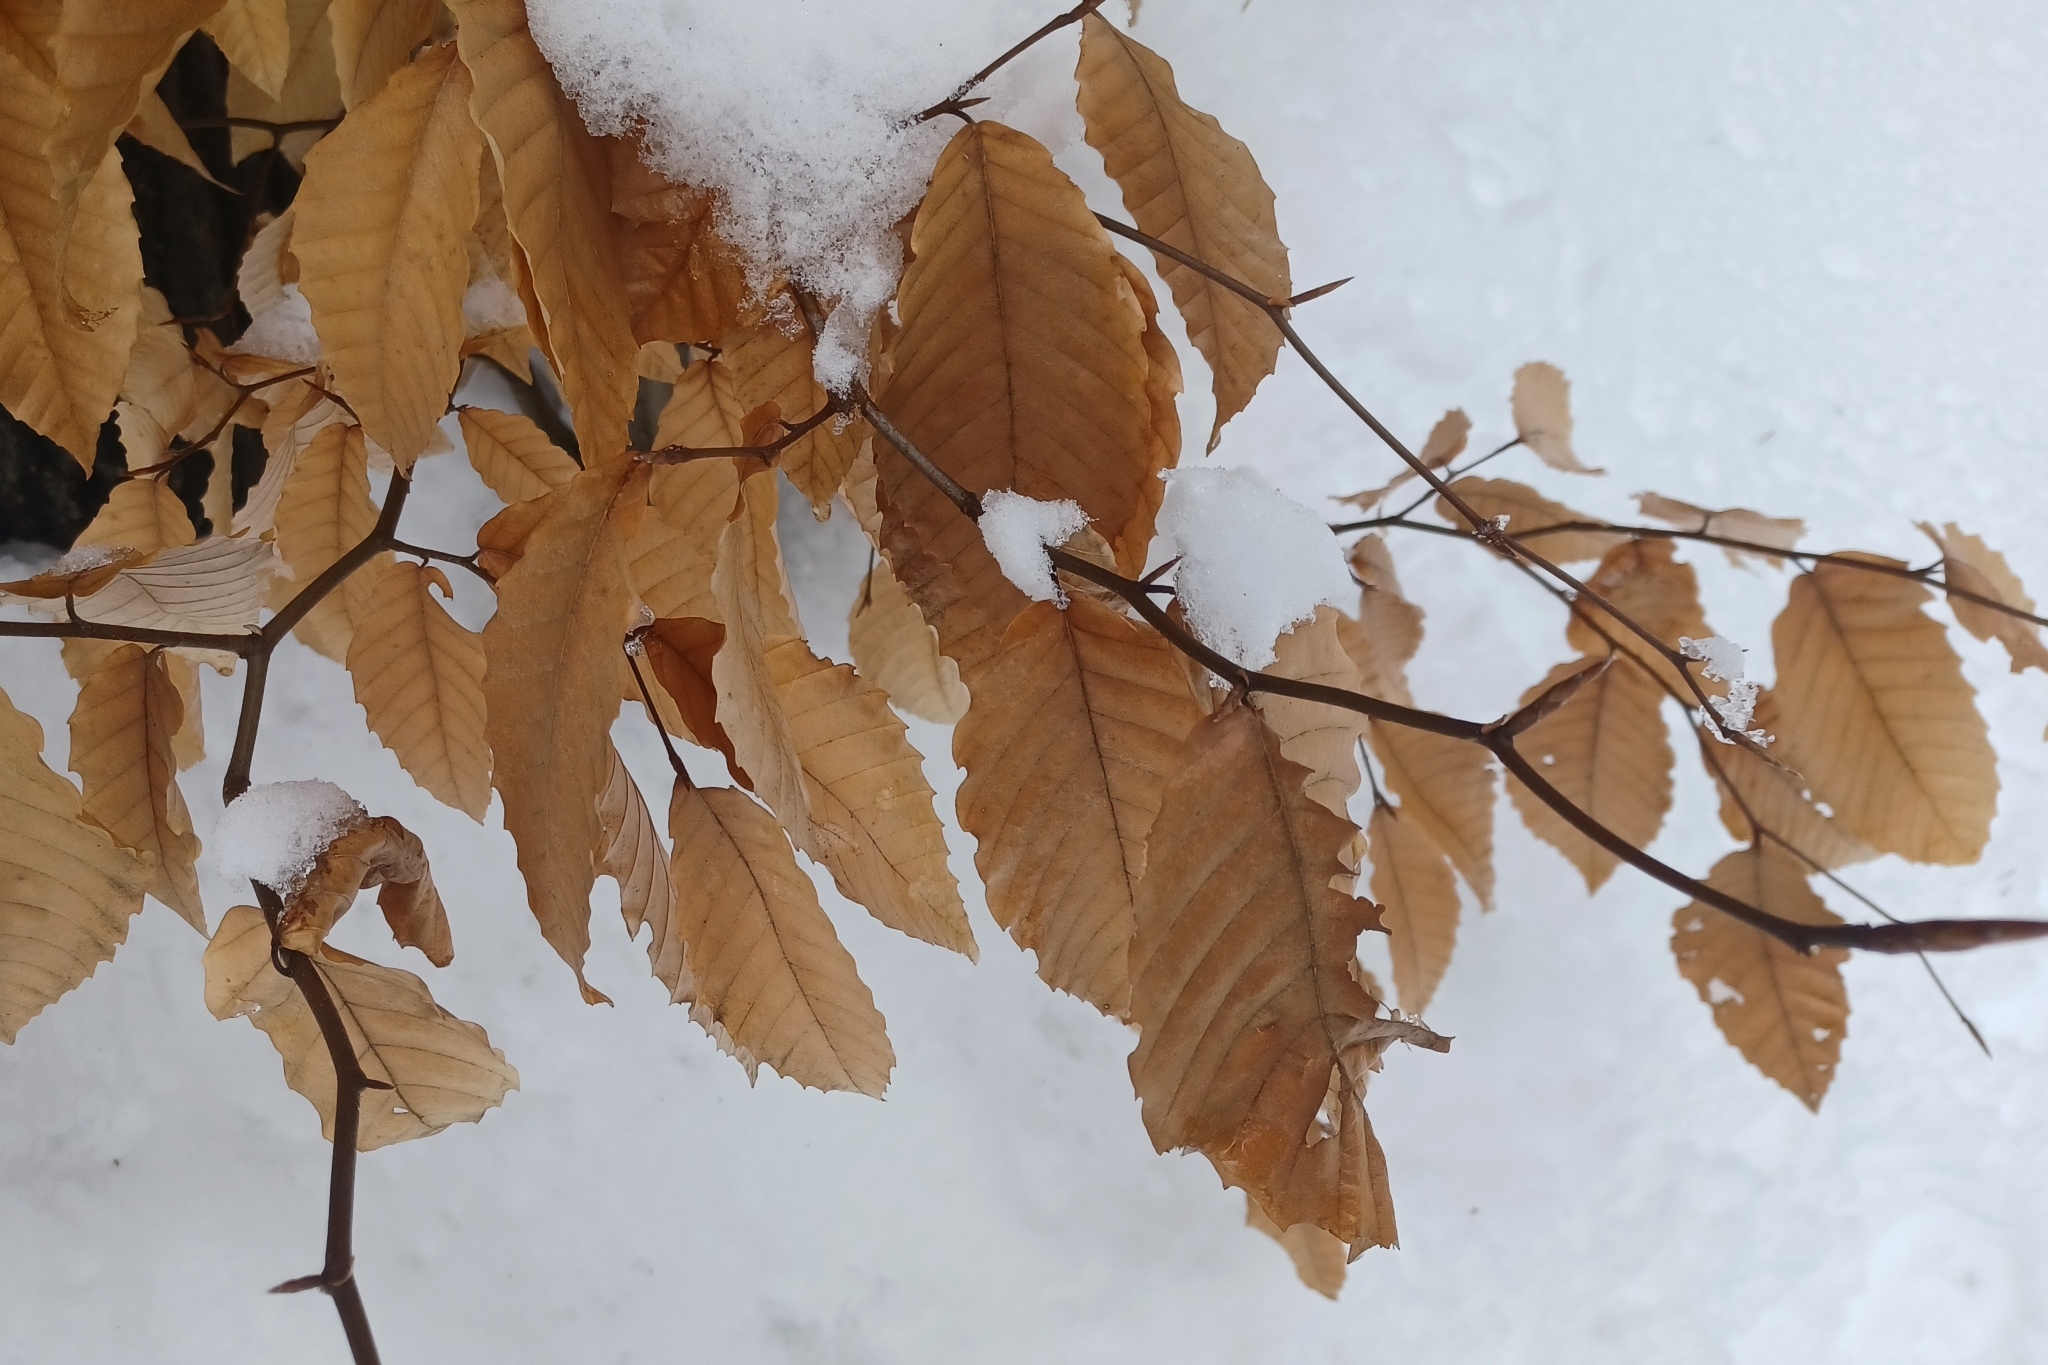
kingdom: Plantae
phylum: Tracheophyta
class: Magnoliopsida
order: Fagales
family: Fagaceae
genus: Fagus
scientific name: Fagus grandifolia
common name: American beech
